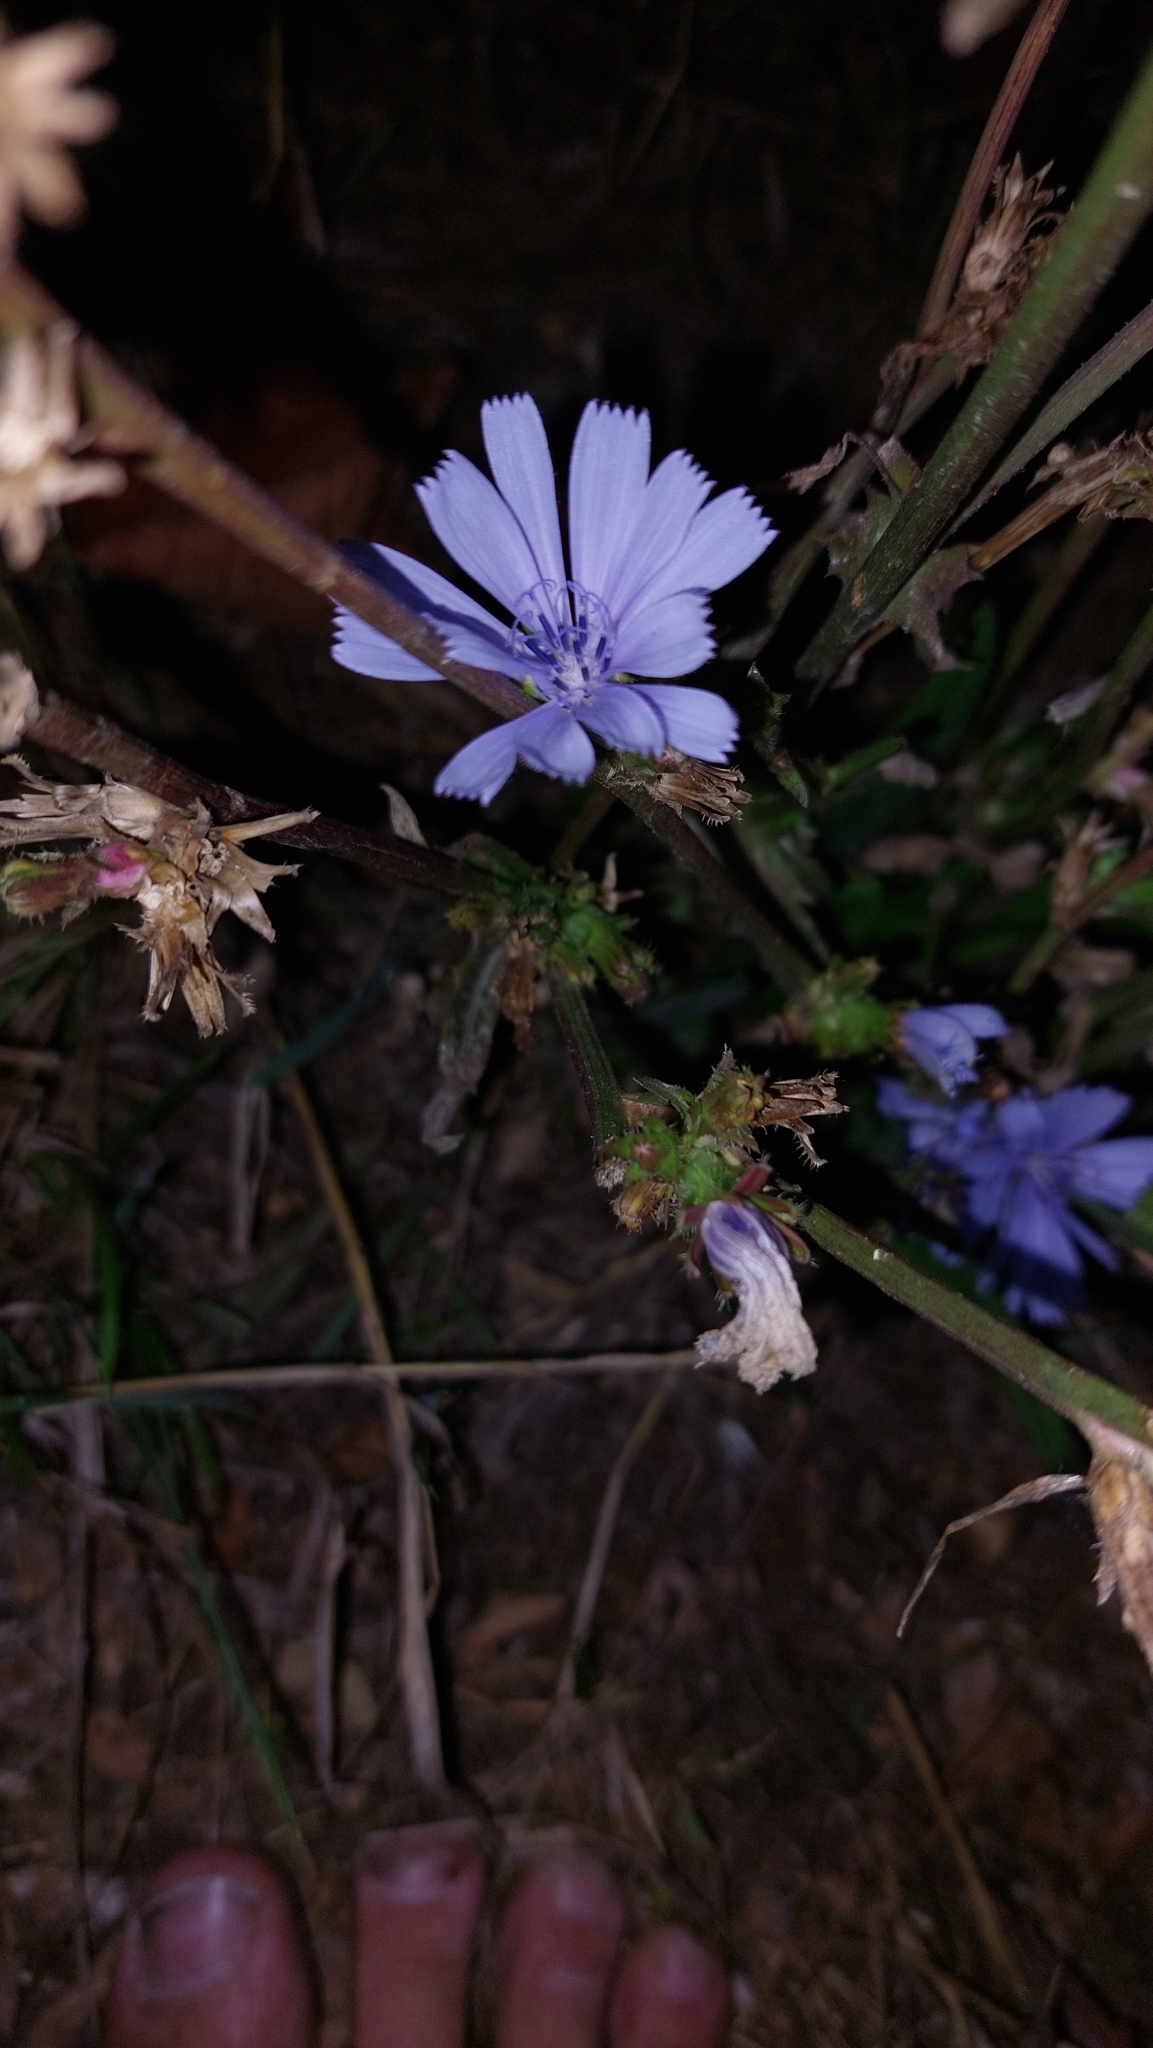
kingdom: Plantae
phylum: Tracheophyta
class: Magnoliopsida
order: Asterales
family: Asteraceae
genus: Cichorium
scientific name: Cichorium intybus
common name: Chicory
